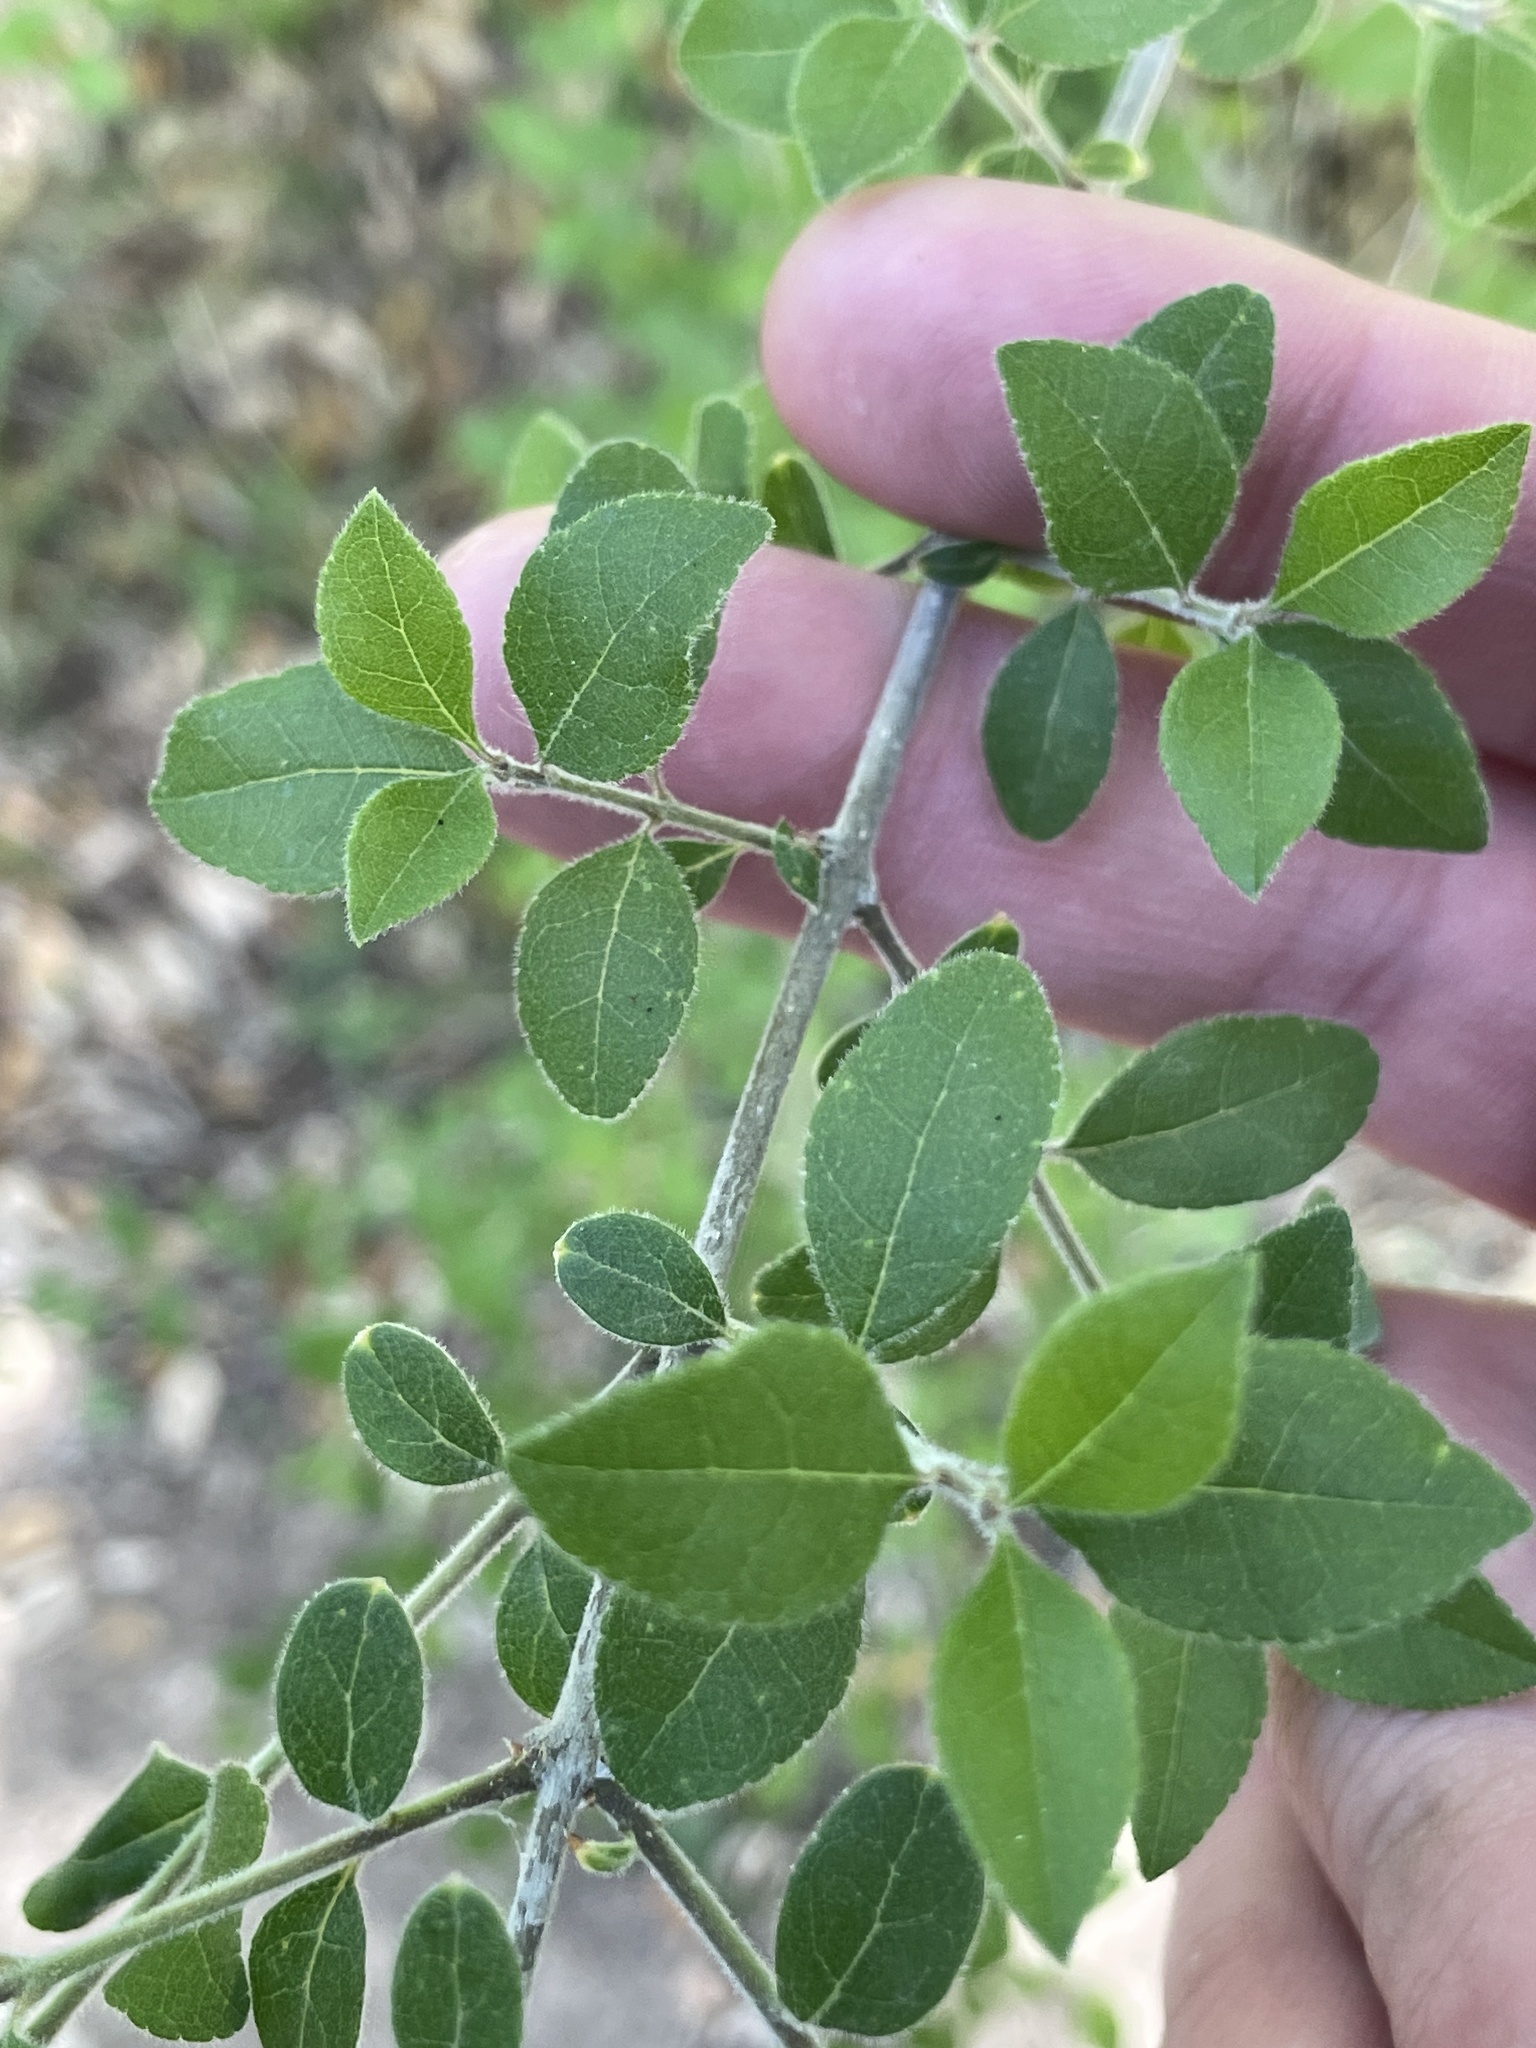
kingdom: Plantae
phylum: Tracheophyta
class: Magnoliopsida
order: Lamiales
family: Oleaceae
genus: Forestiera
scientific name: Forestiera pubescens
